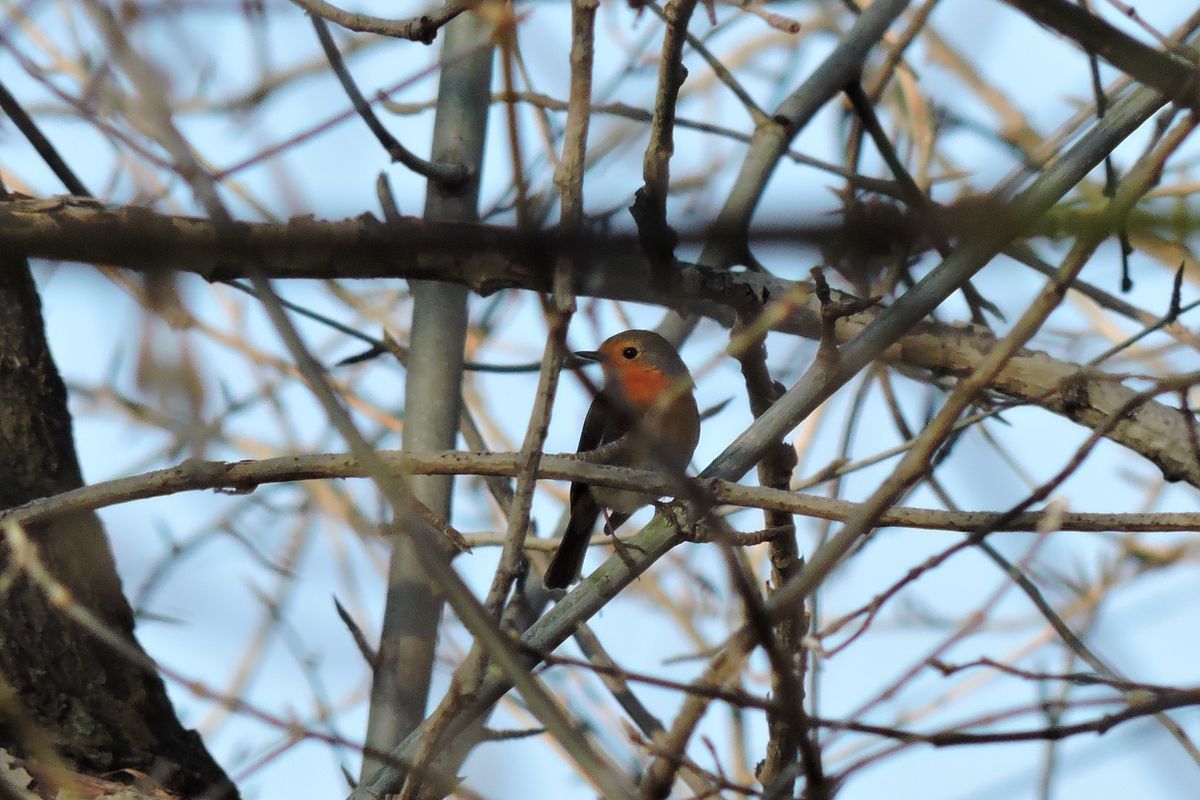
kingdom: Animalia
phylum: Chordata
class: Aves
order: Passeriformes
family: Muscicapidae
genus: Erithacus
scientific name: Erithacus rubecula
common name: European robin
